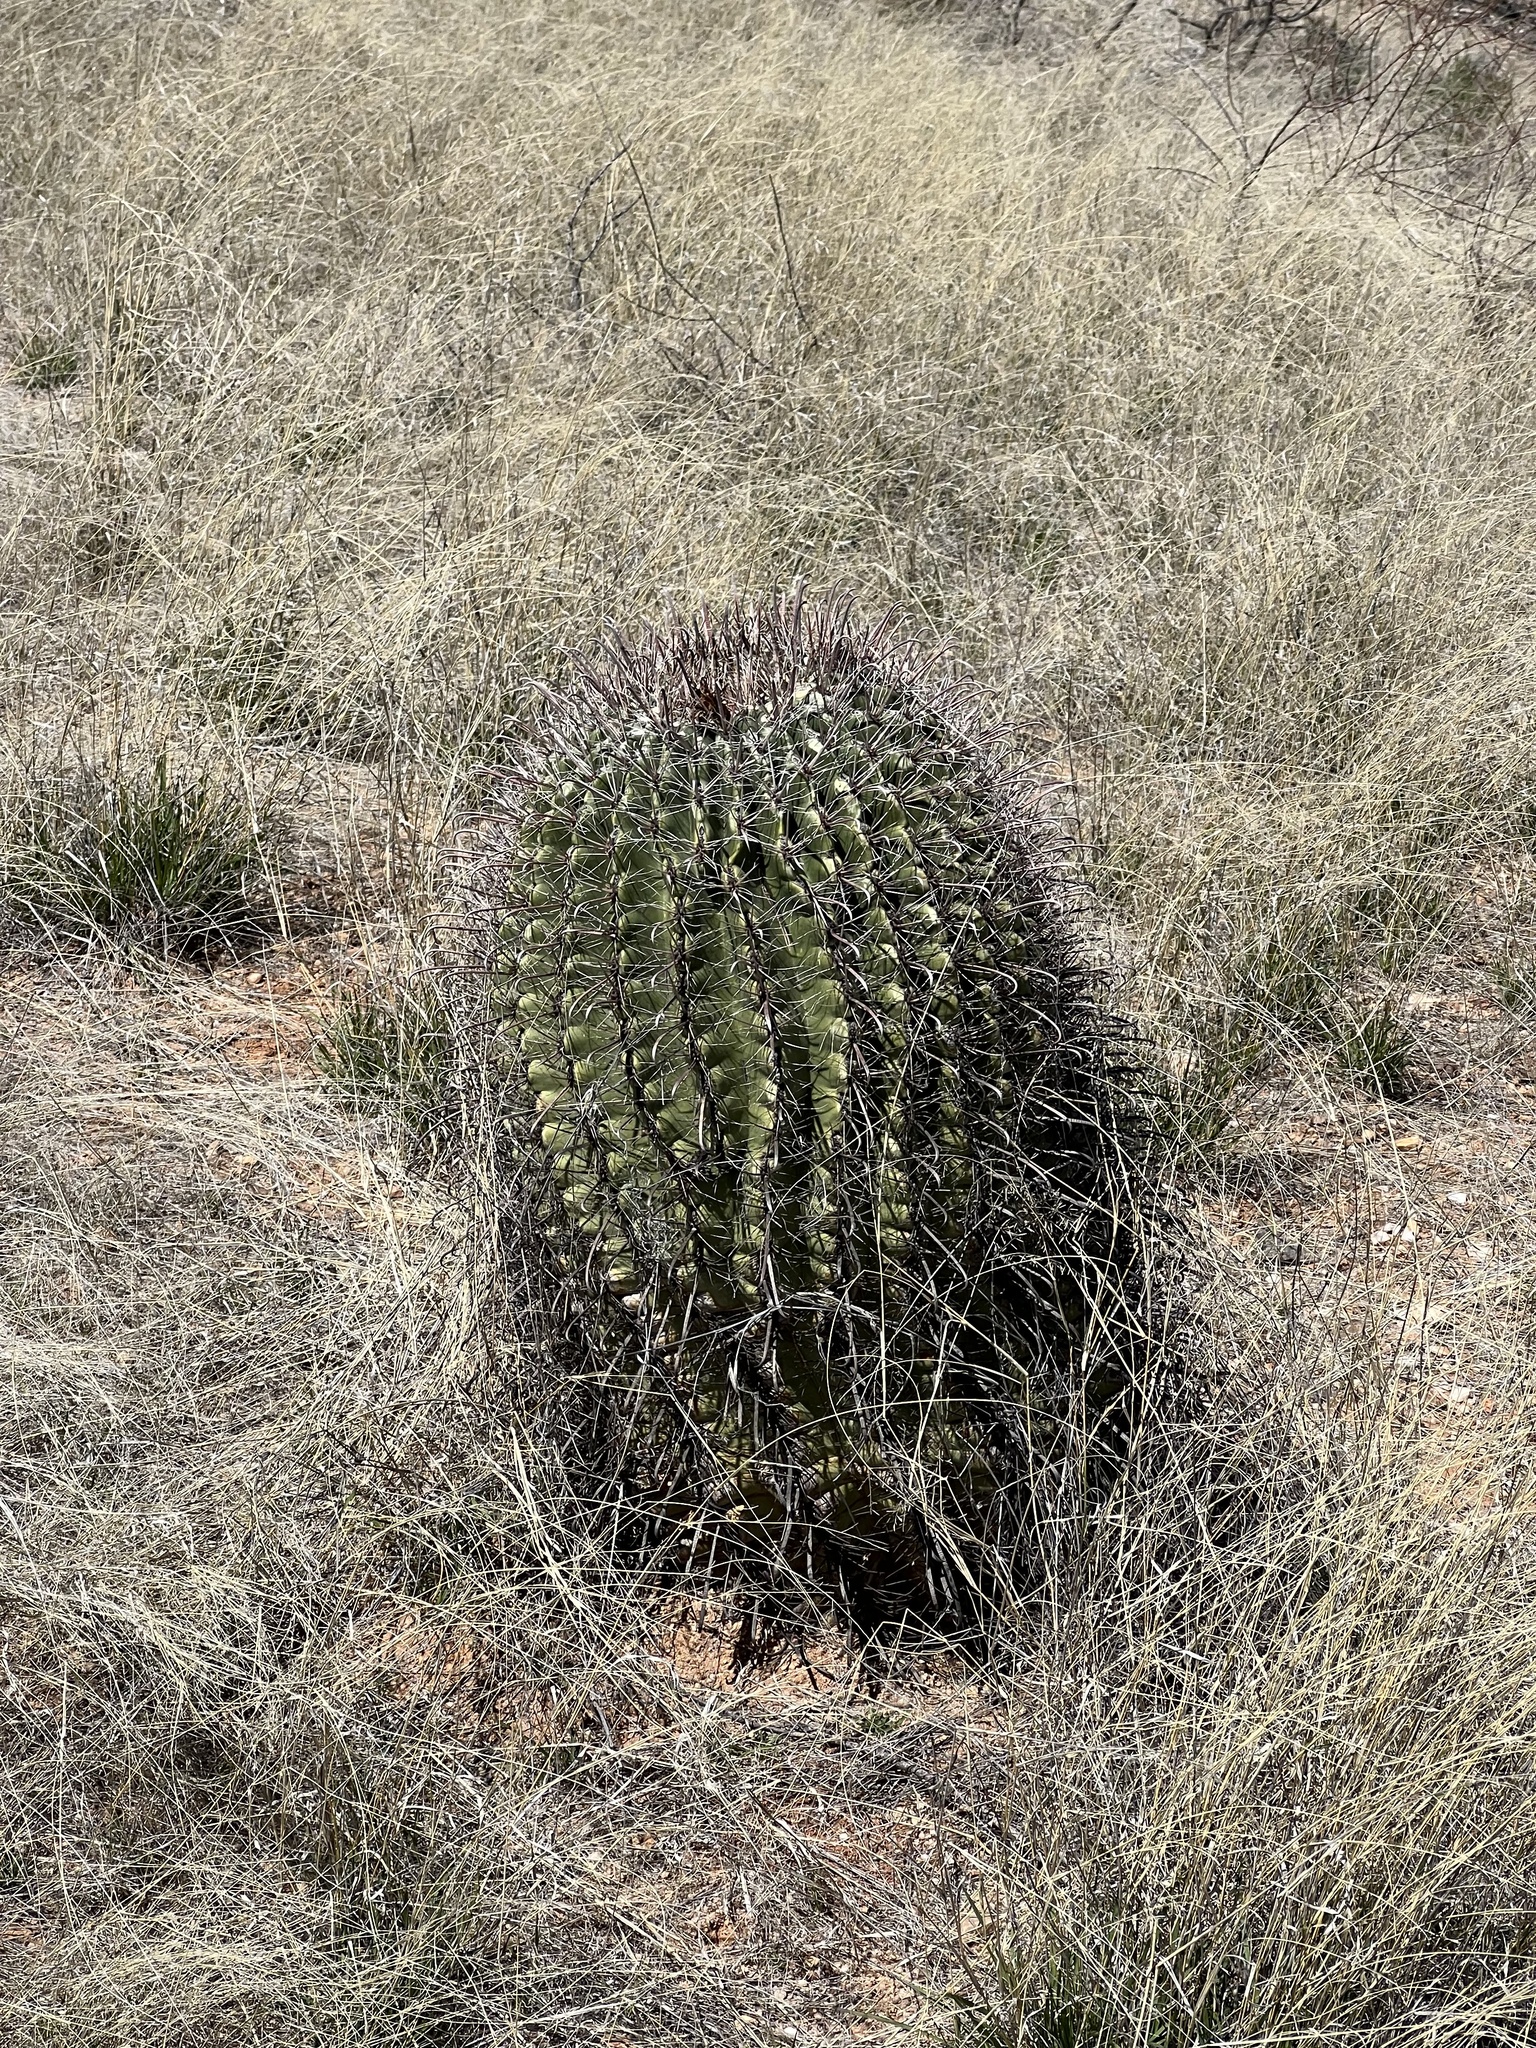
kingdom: Plantae
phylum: Tracheophyta
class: Magnoliopsida
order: Caryophyllales
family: Cactaceae
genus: Ferocactus
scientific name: Ferocactus wislizeni
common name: Candy barrel cactus
